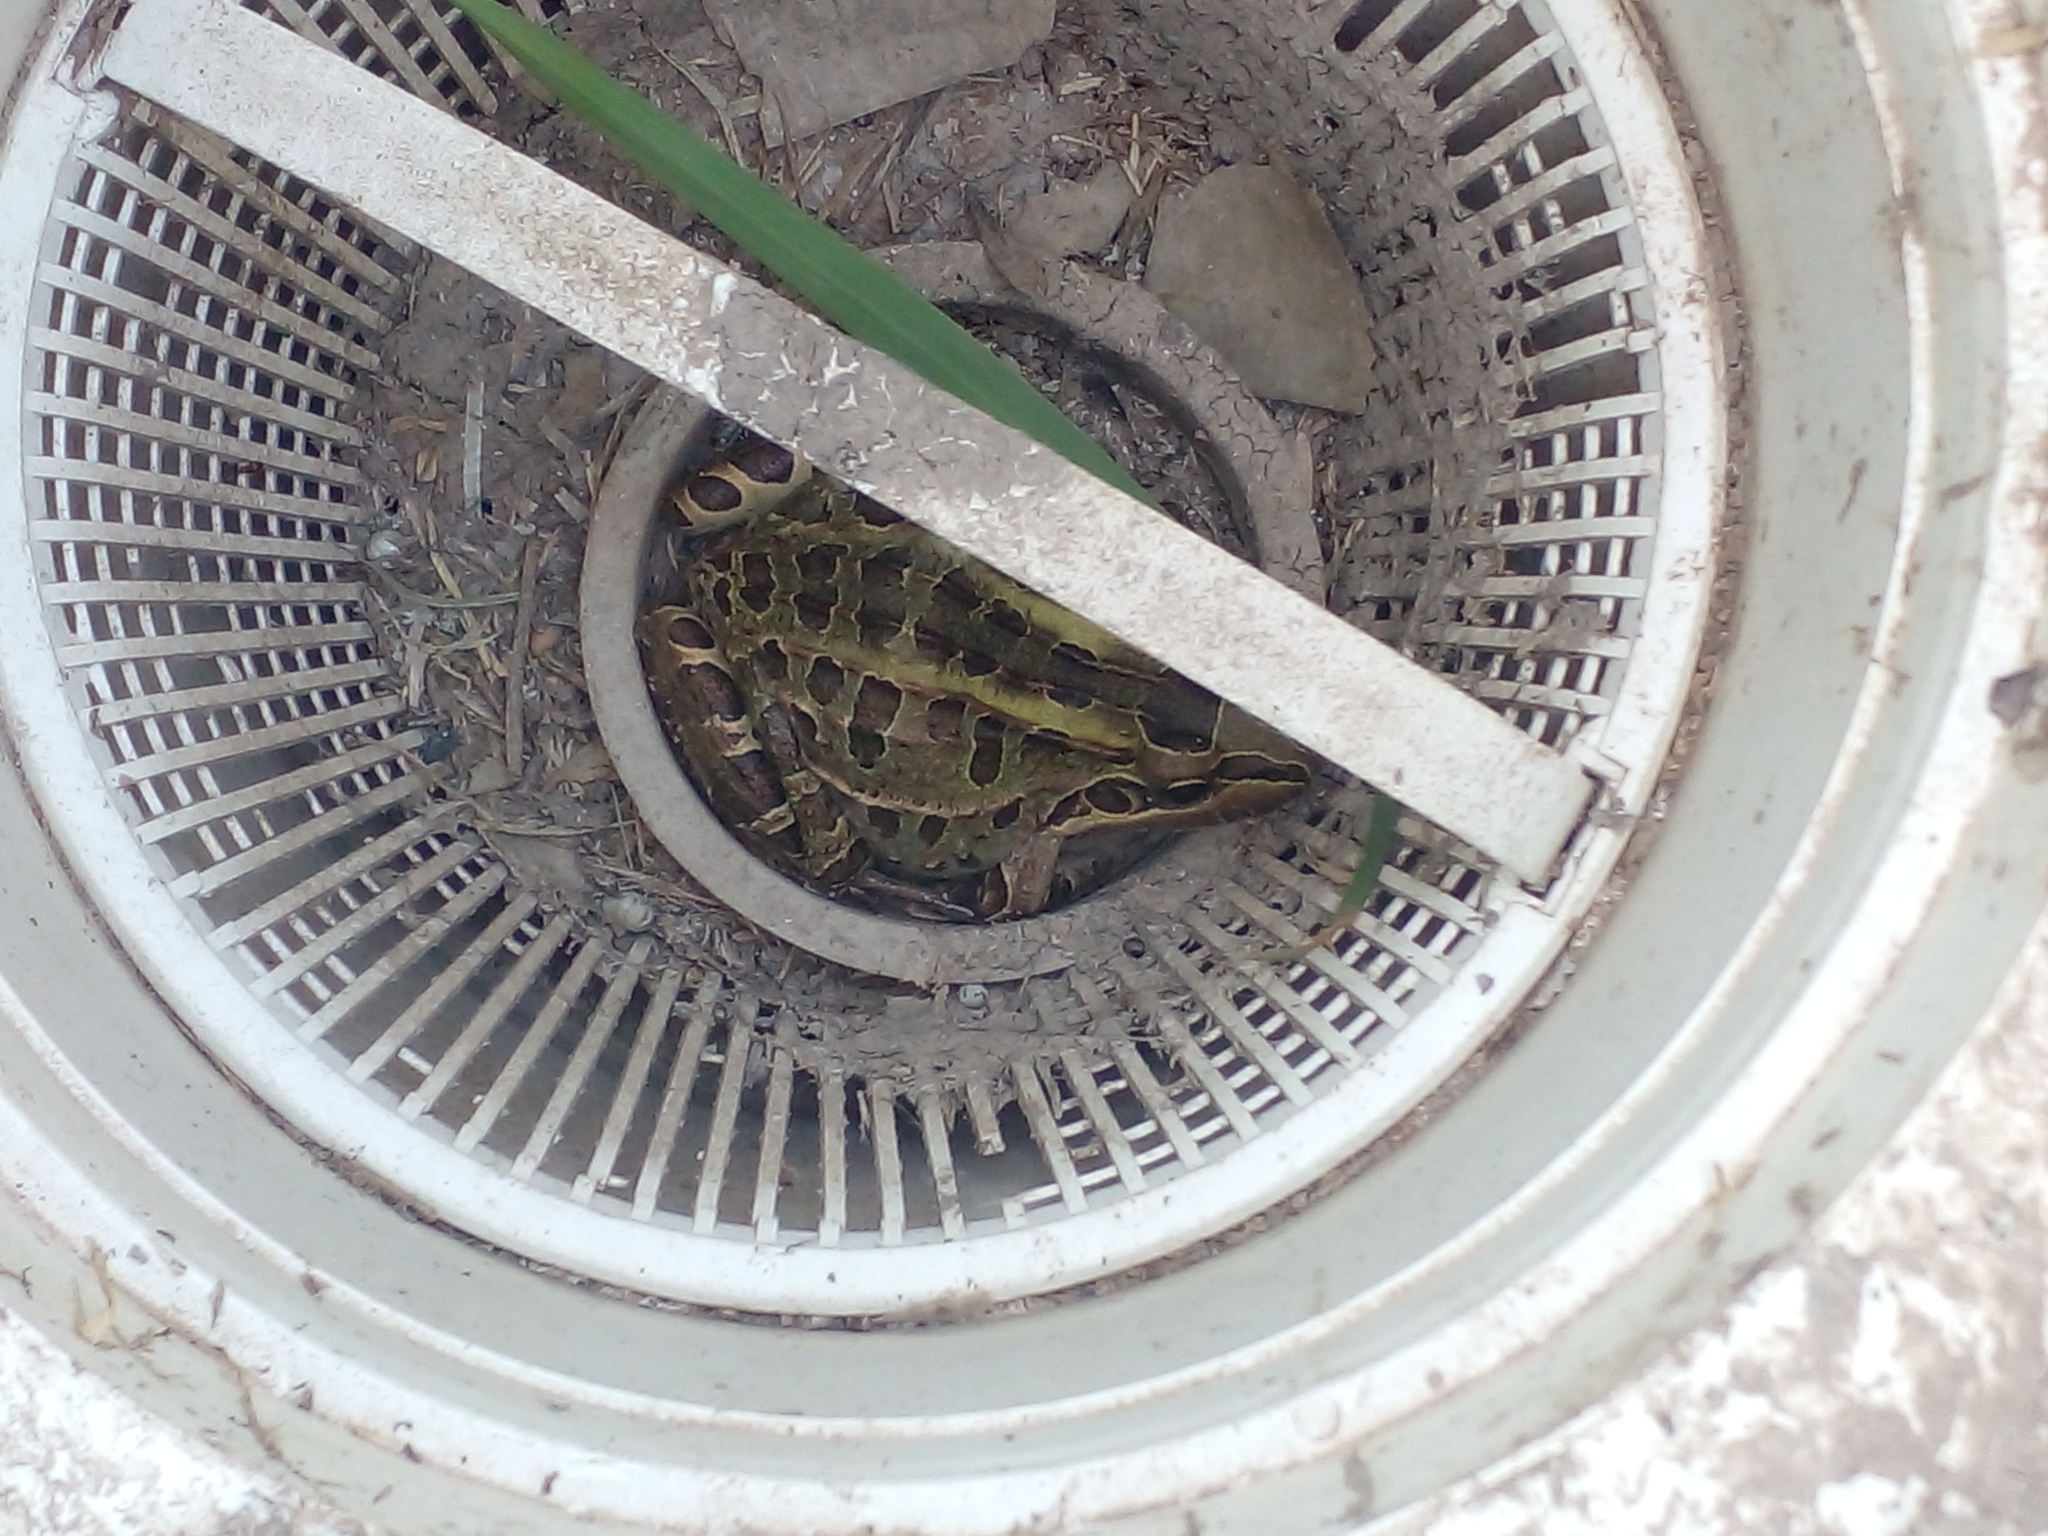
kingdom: Animalia
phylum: Chordata
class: Amphibia
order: Anura
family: Leptodactylidae
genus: Leptodactylus
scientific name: Leptodactylus luctator
